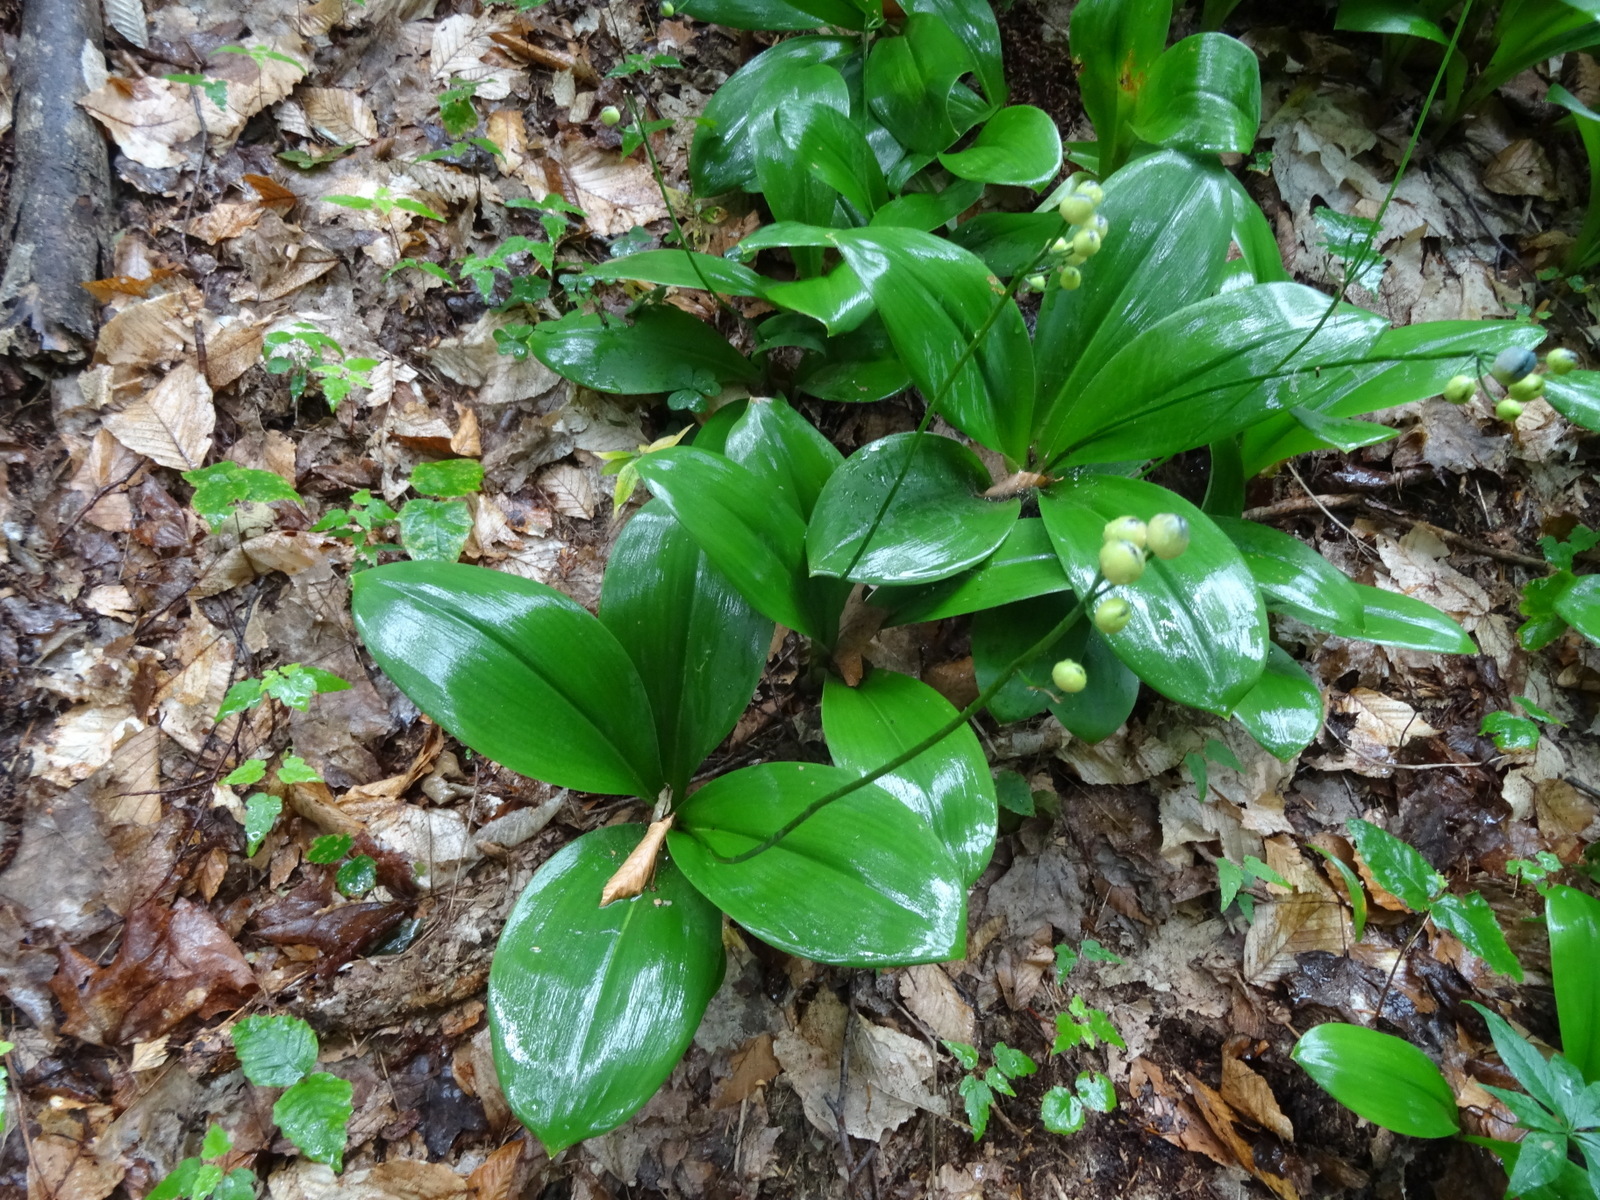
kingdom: Plantae
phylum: Tracheophyta
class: Liliopsida
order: Liliales
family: Liliaceae
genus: Clintonia
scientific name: Clintonia borealis
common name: Yellow clintonia
